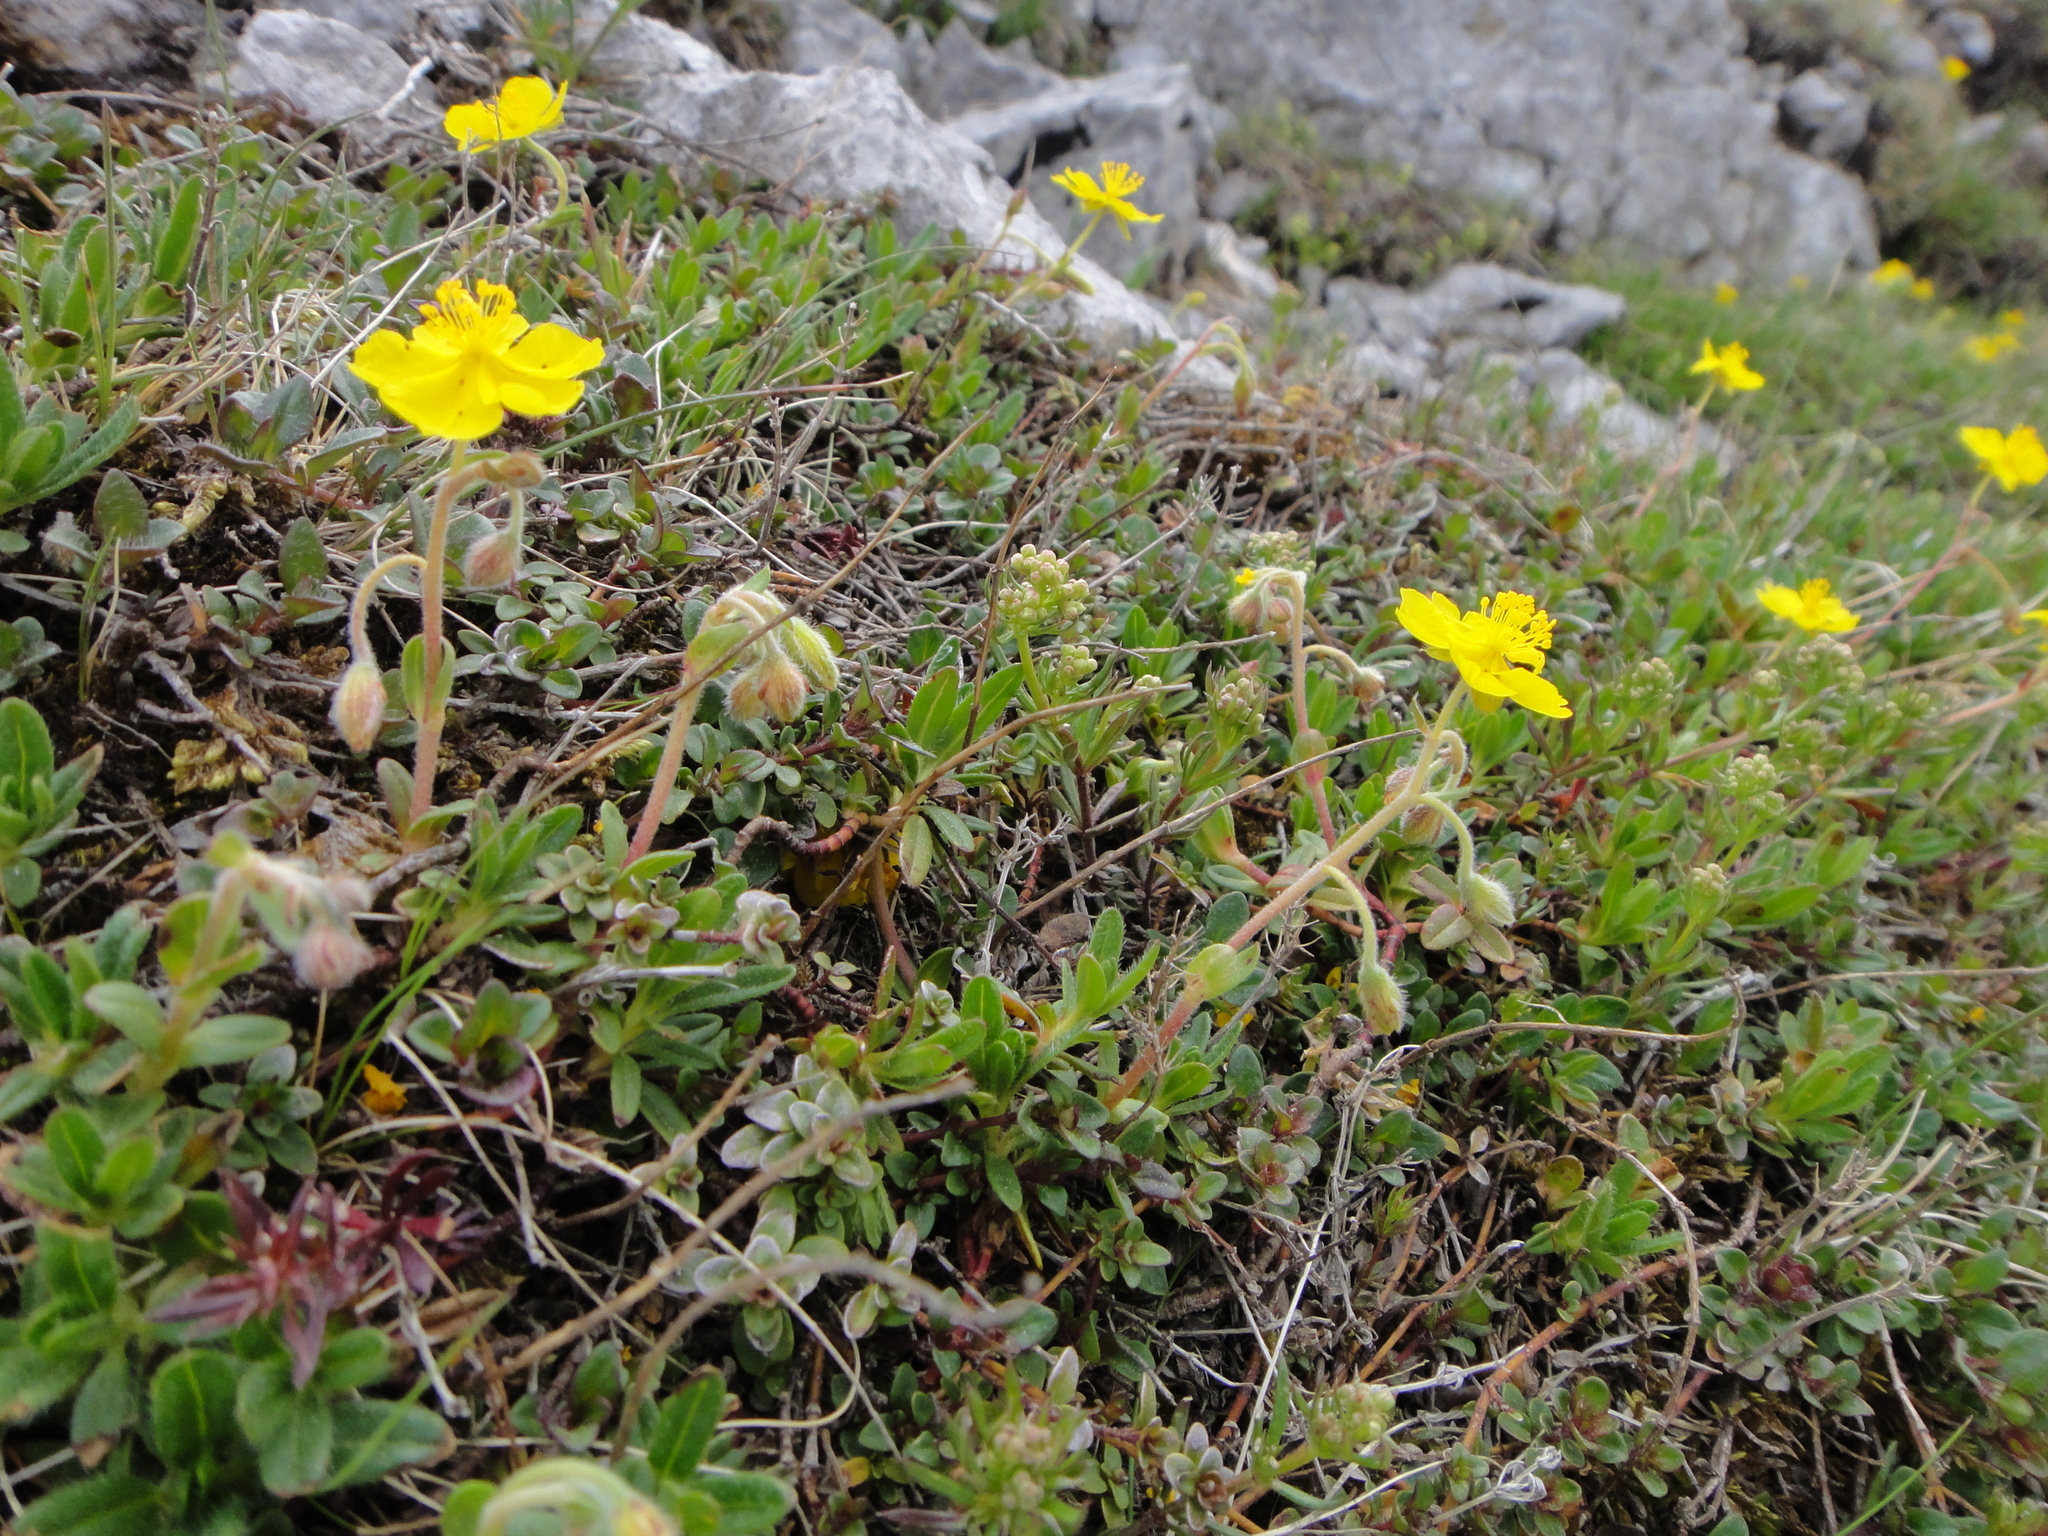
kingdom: Plantae
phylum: Tracheophyta
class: Magnoliopsida
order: Malvales
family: Cistaceae
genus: Helianthemum
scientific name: Helianthemum alpestre
